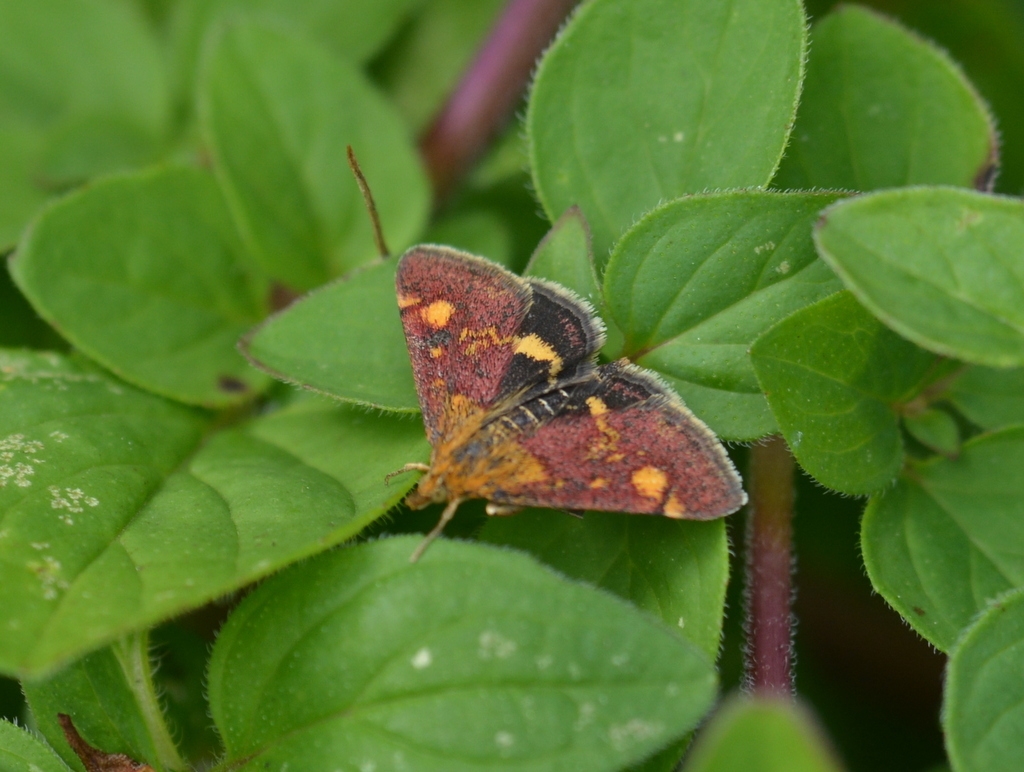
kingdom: Animalia
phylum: Arthropoda
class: Insecta
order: Lepidoptera
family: Crambidae
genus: Pyrausta
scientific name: Pyrausta aurata
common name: Small purple & gold
